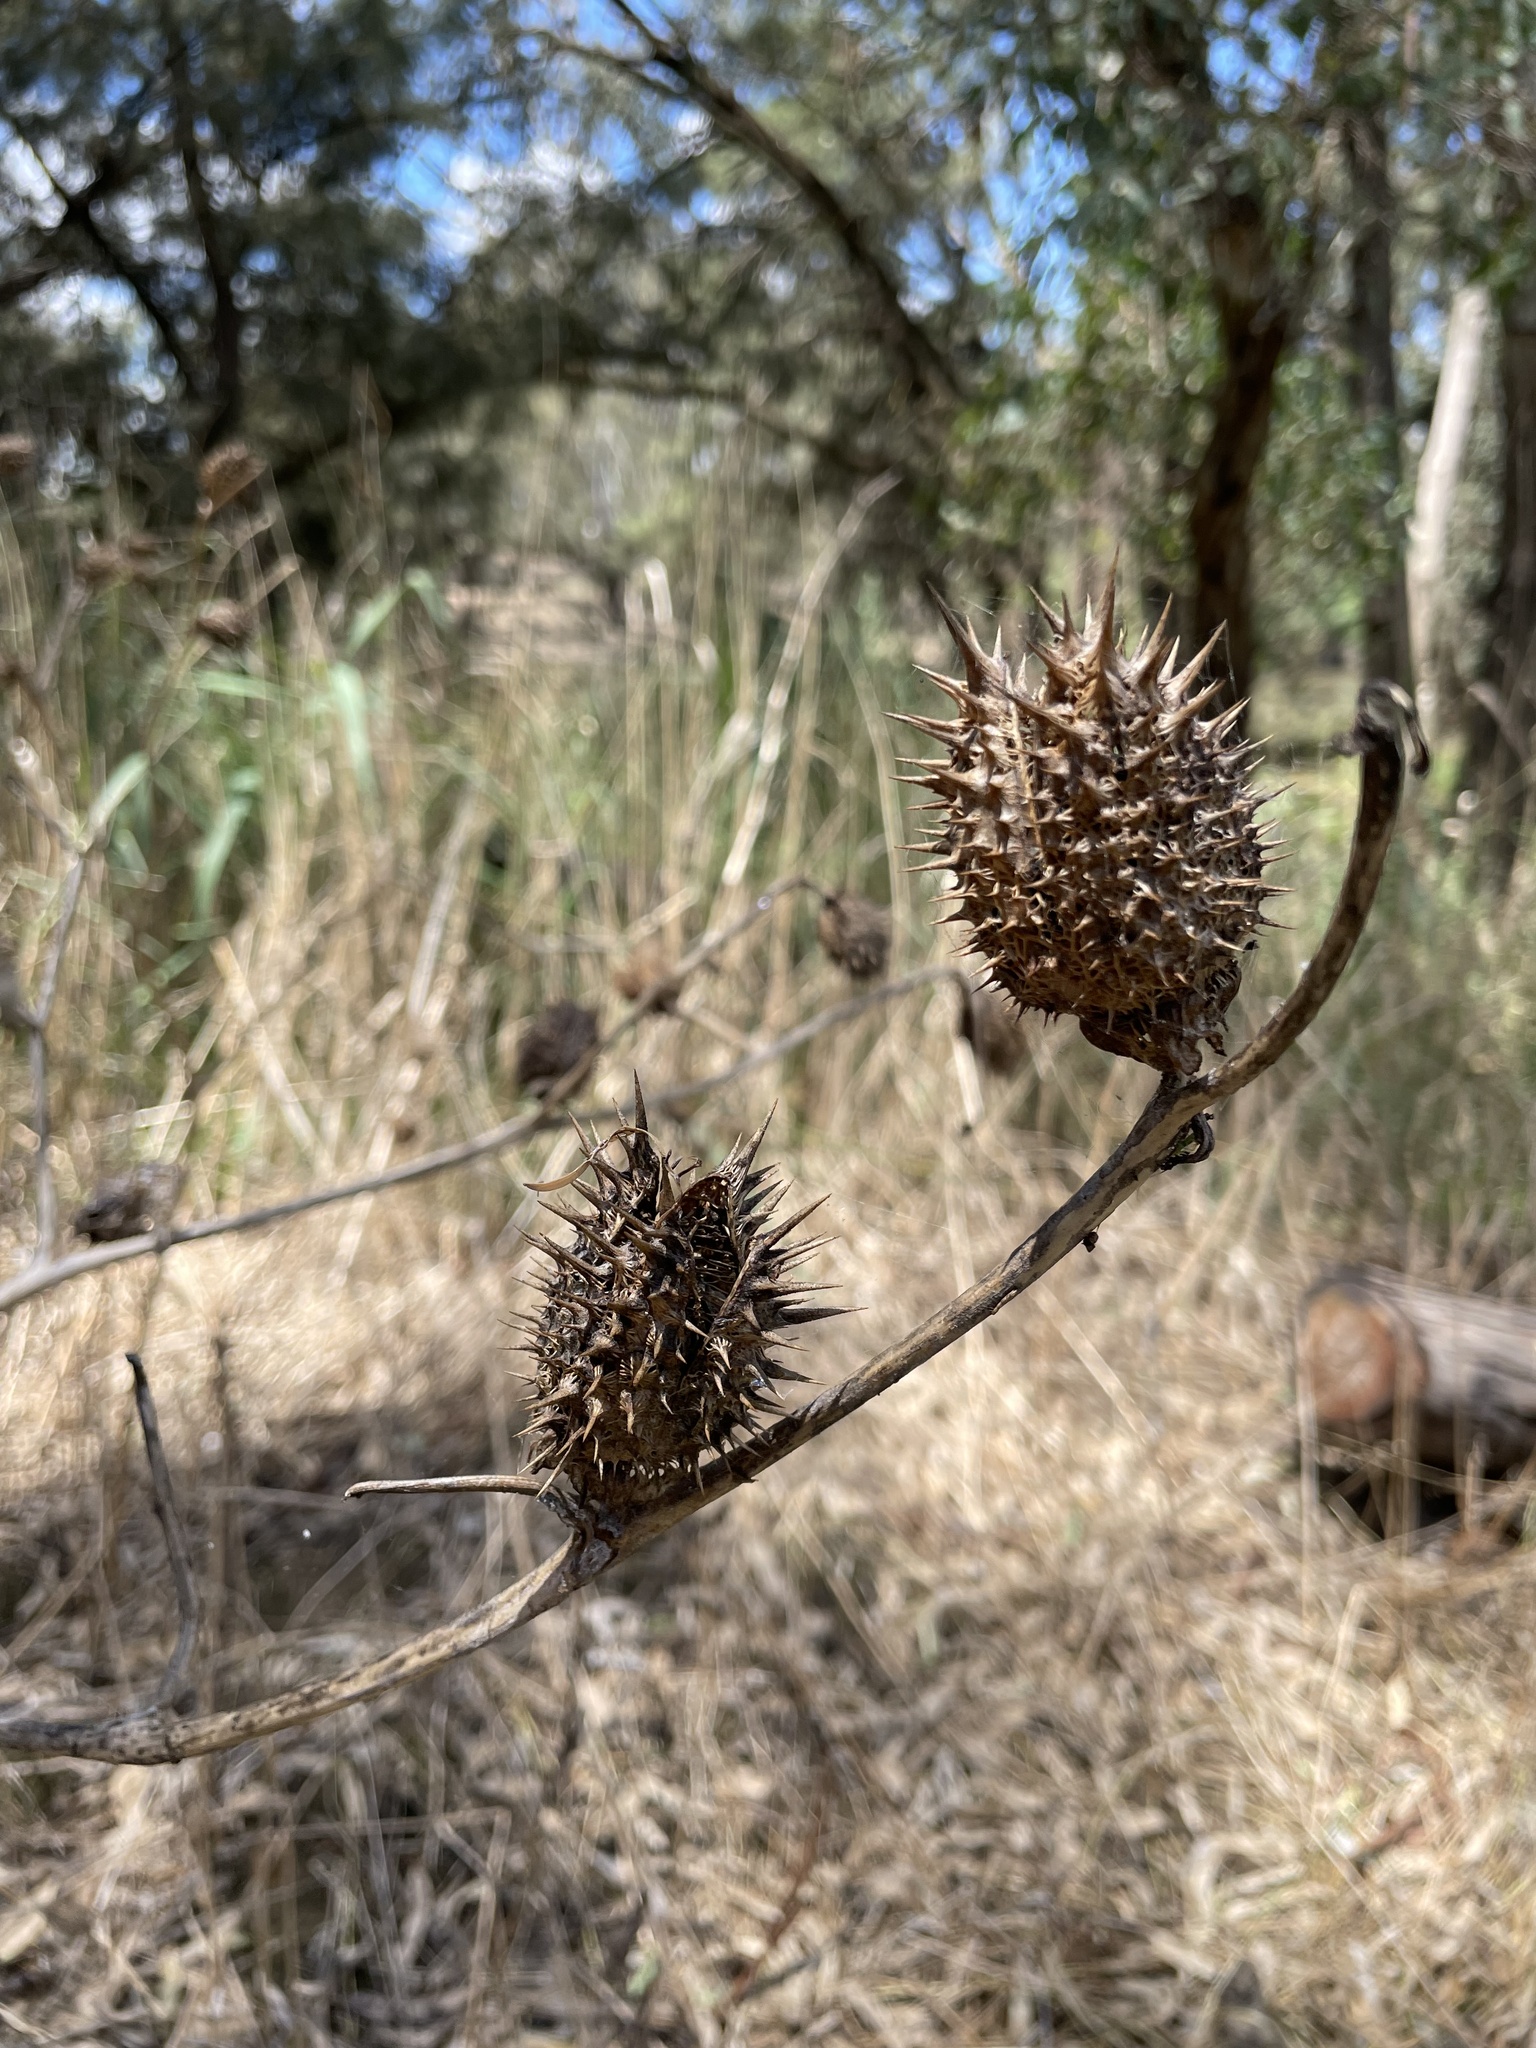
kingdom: Plantae
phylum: Tracheophyta
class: Magnoliopsida
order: Solanales
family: Solanaceae
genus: Datura
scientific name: Datura stramonium
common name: Thorn-apple
